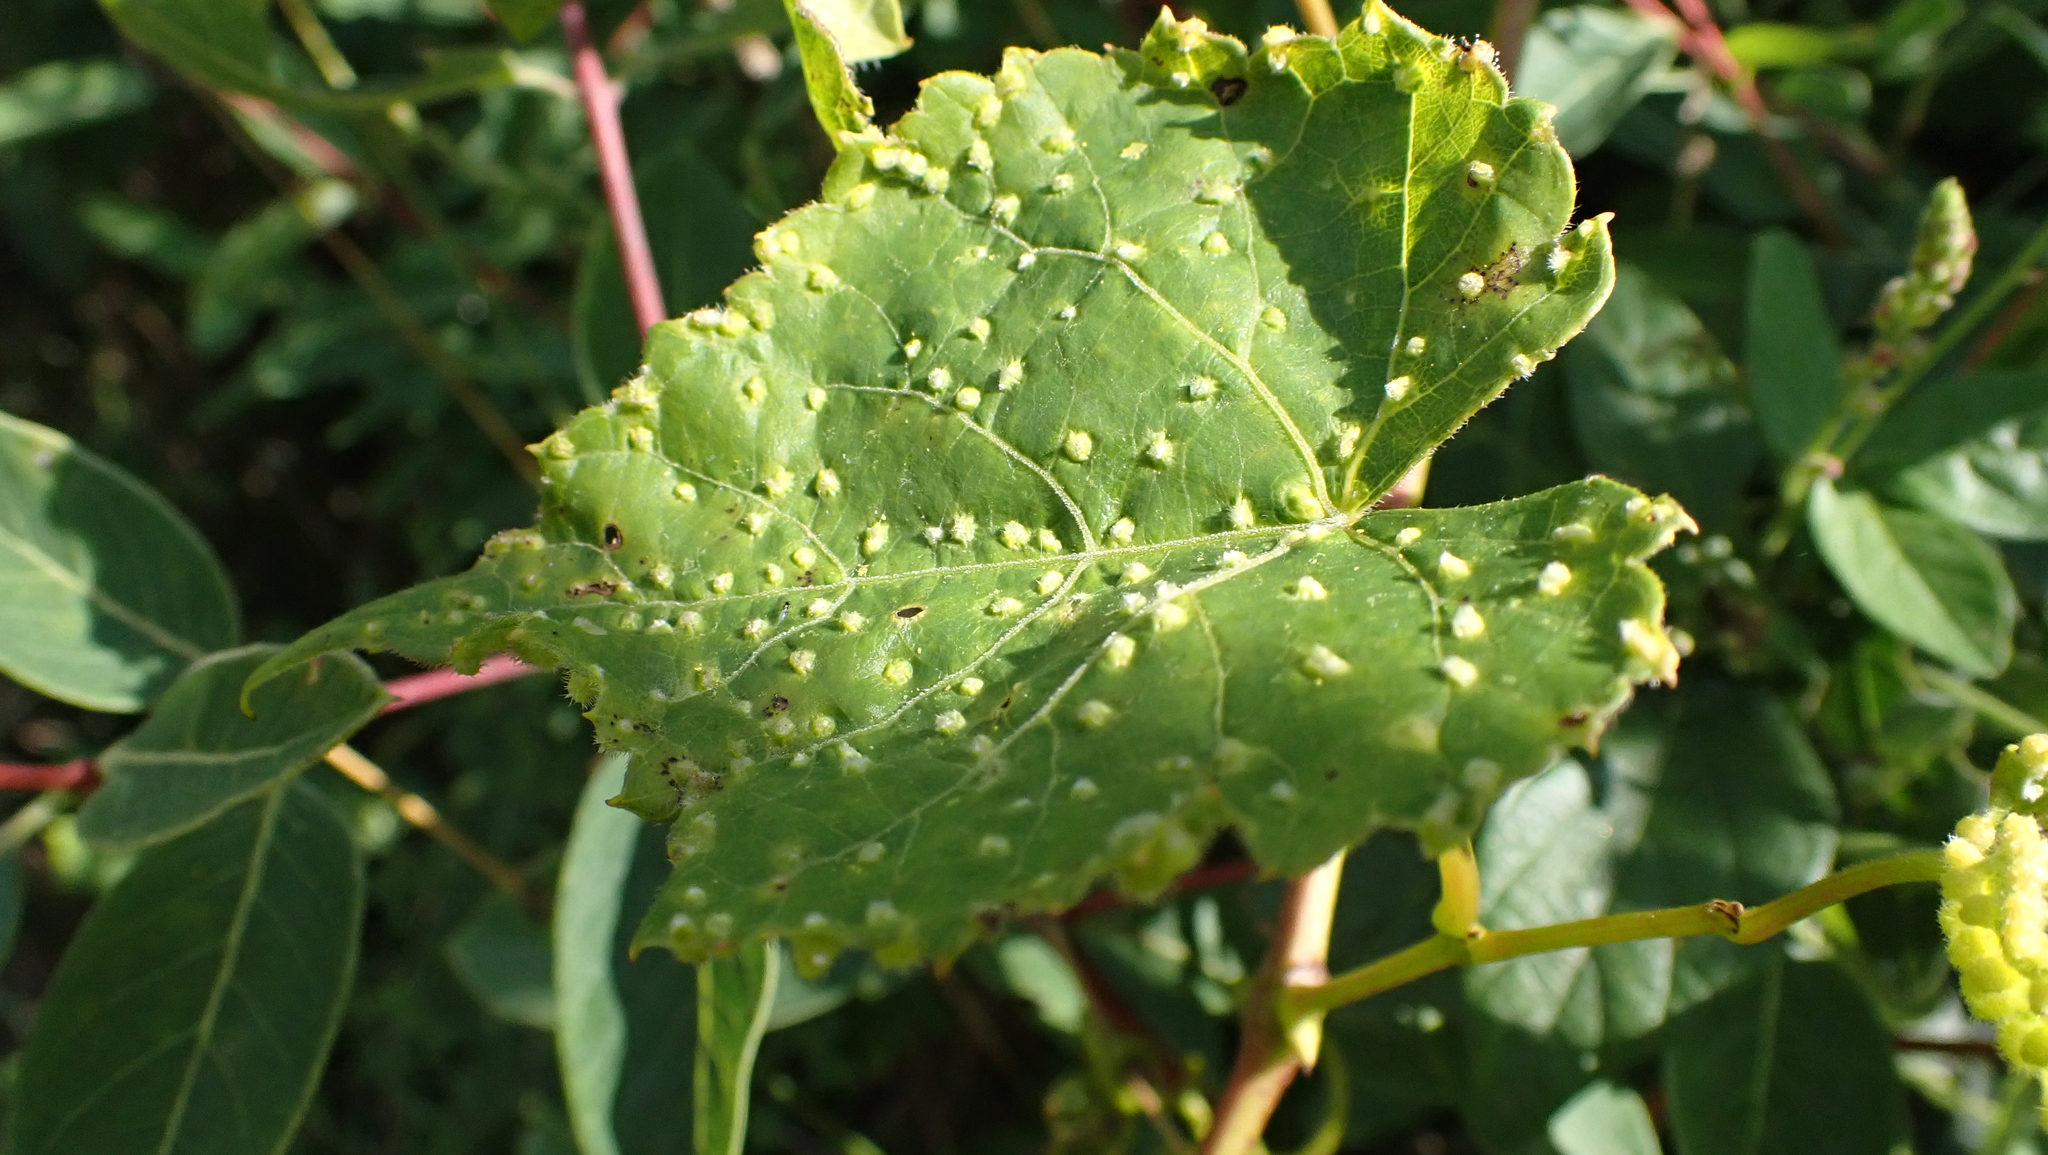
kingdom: Animalia
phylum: Arthropoda
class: Insecta
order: Hemiptera
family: Phylloxeridae
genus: Daktulosphaira
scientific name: Daktulosphaira vitifoliae
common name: Grape phylloxera
